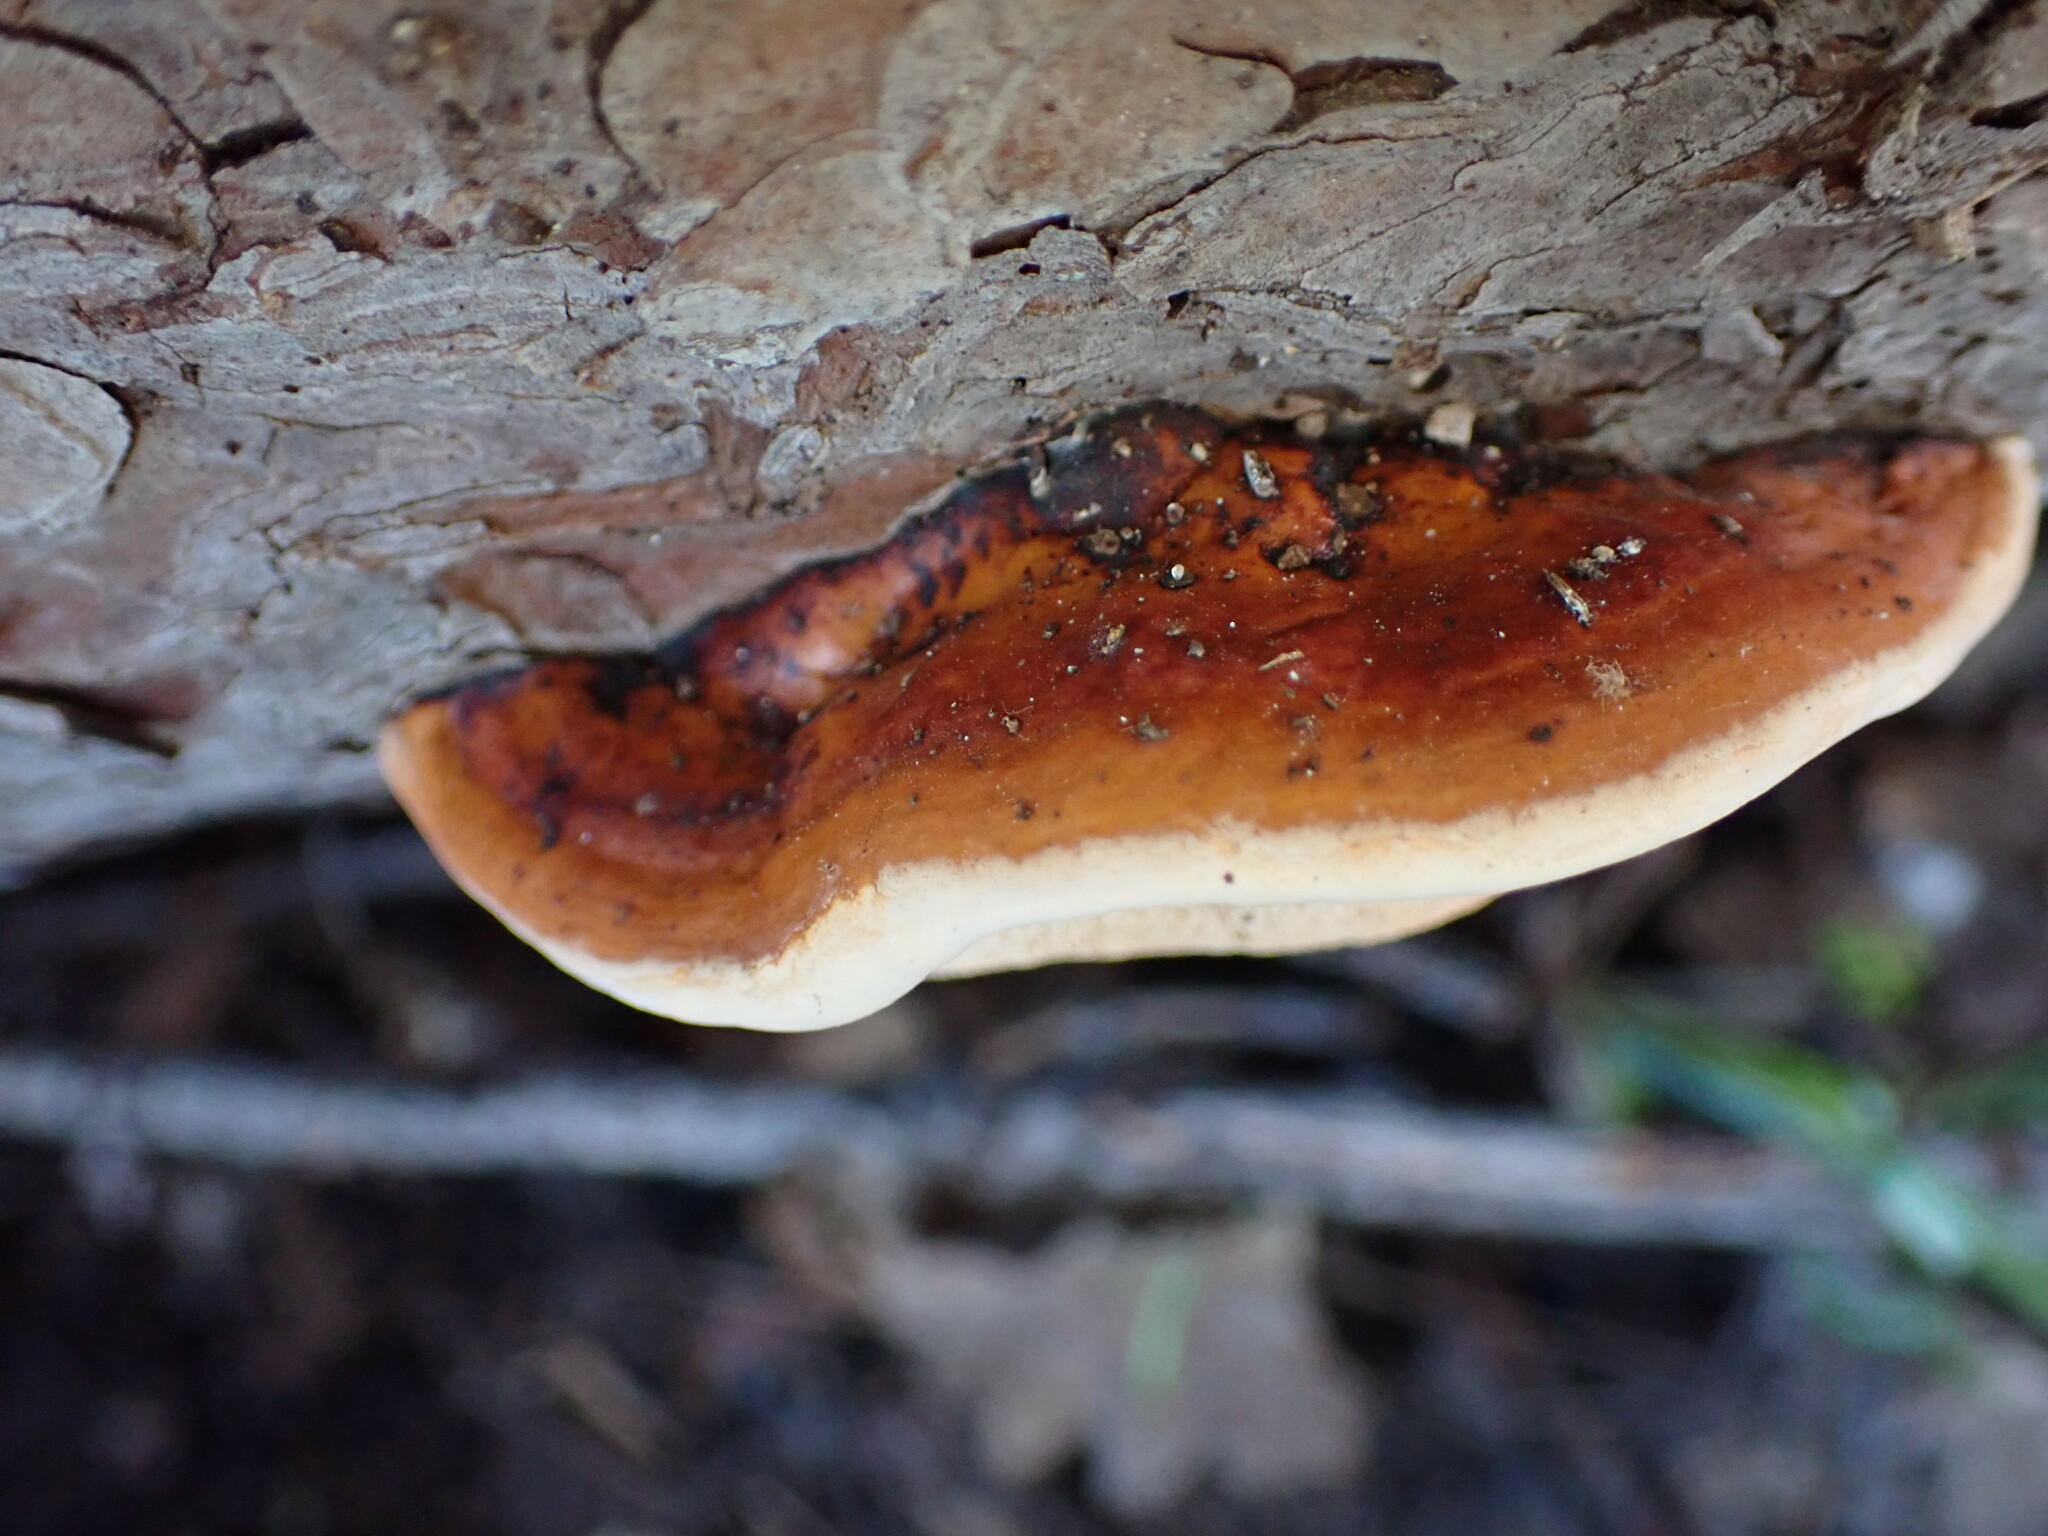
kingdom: Fungi
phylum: Basidiomycota
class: Agaricomycetes
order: Polyporales
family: Fomitopsidaceae
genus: Fomitopsis
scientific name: Fomitopsis pinicola
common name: Red-belted bracket
